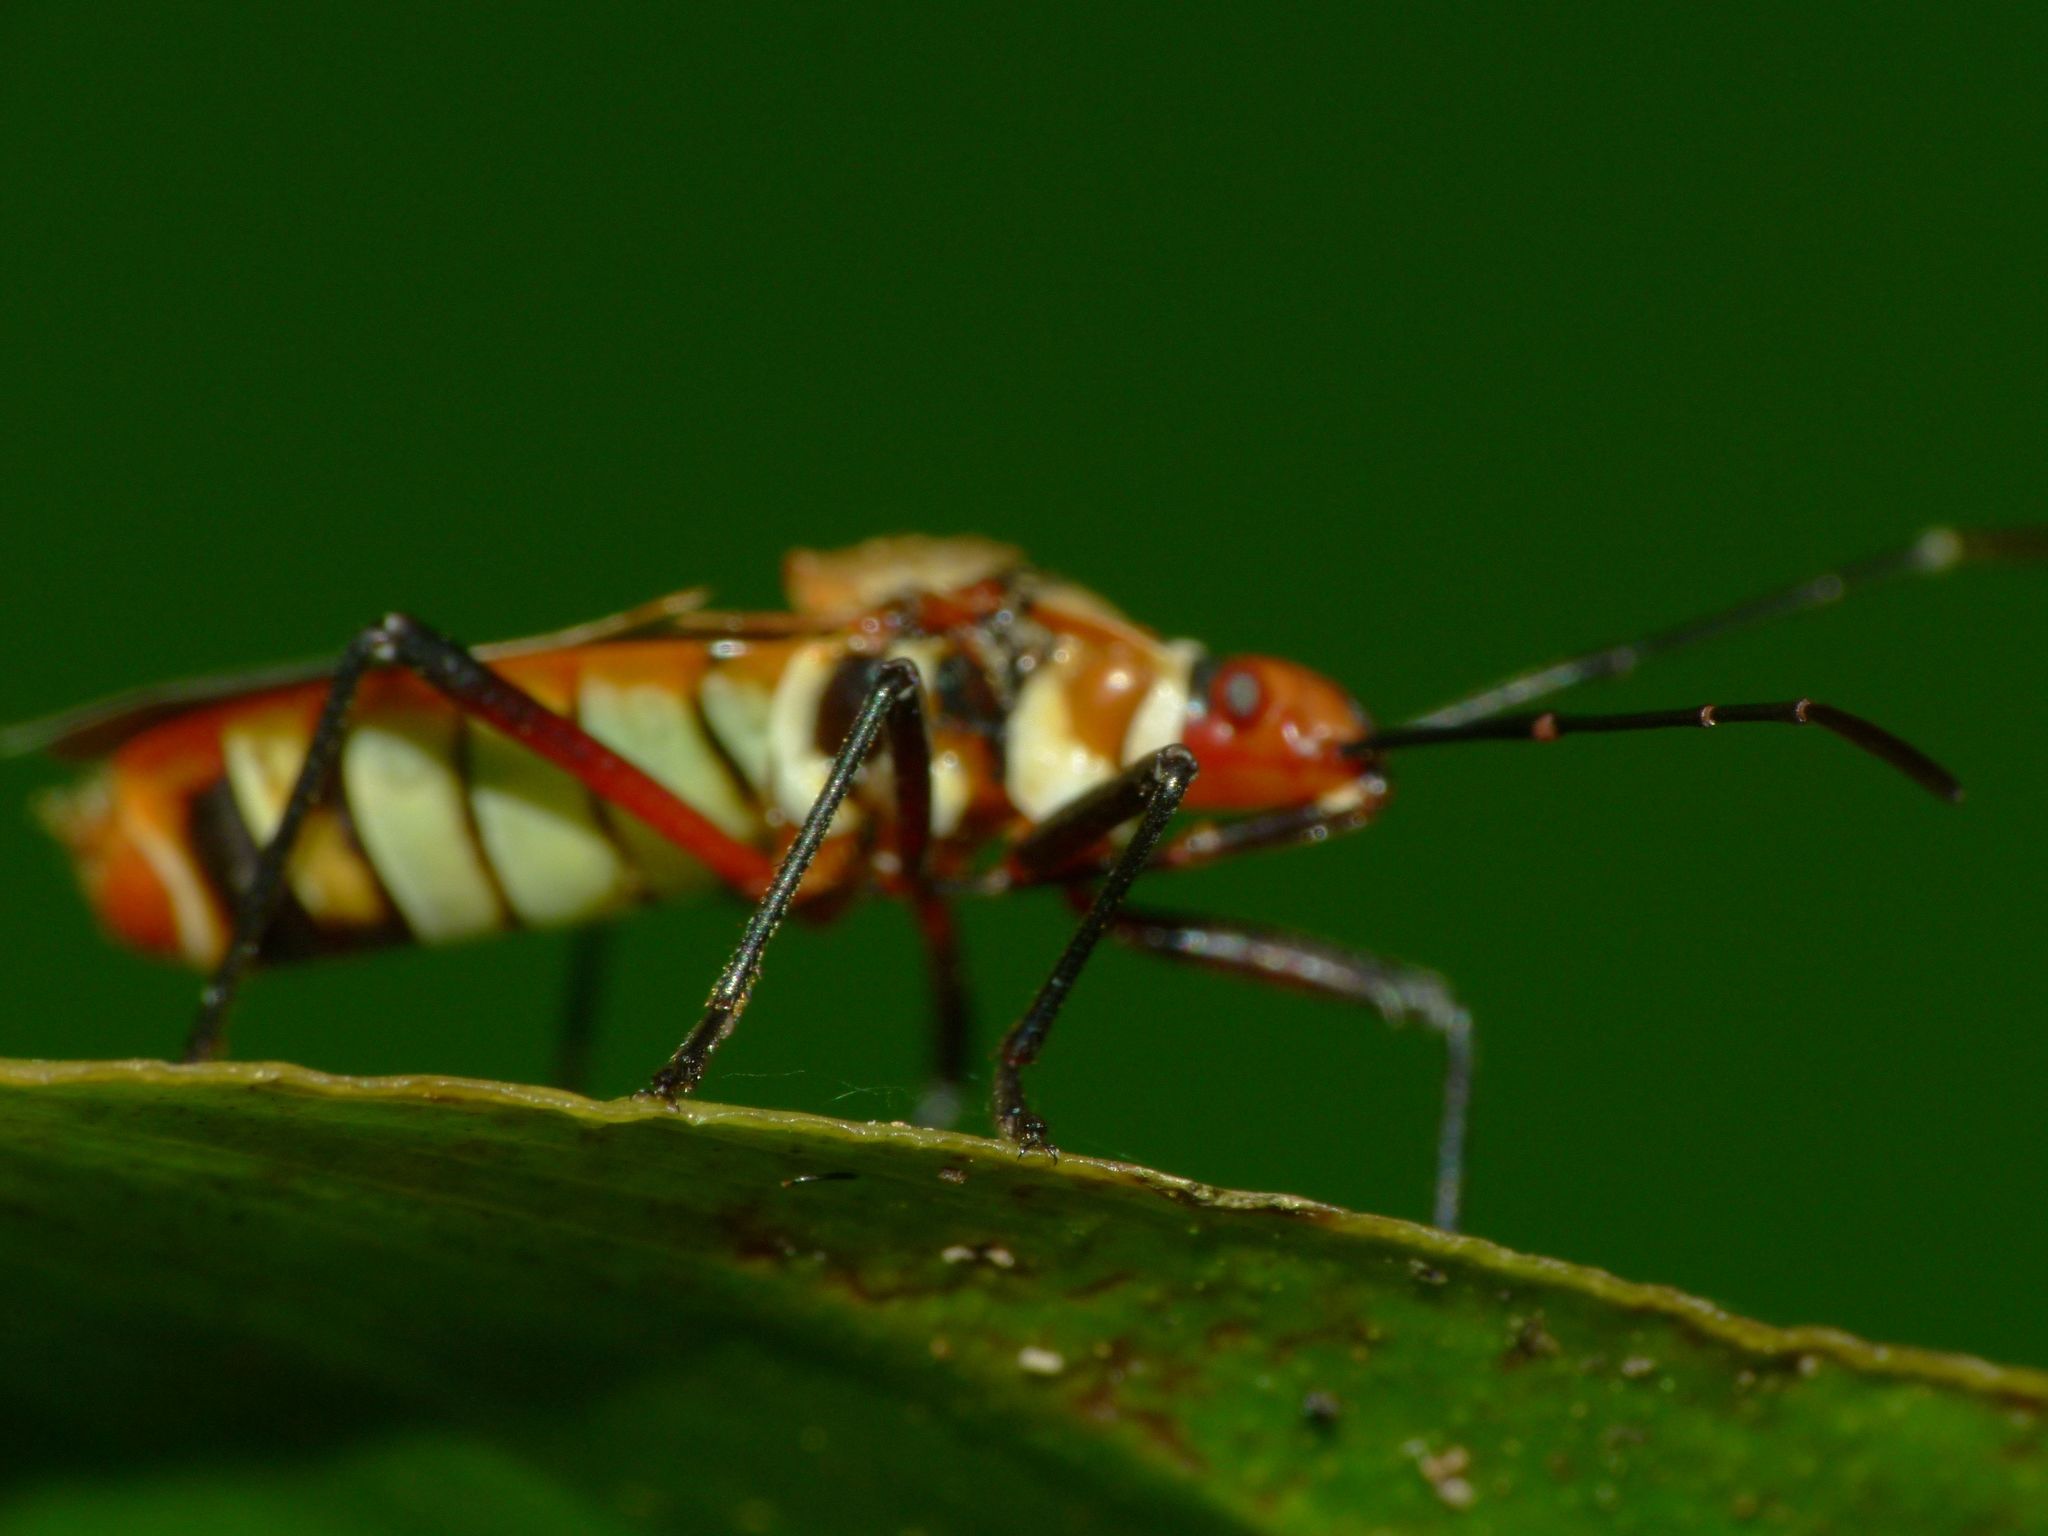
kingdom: Animalia
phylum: Arthropoda
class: Insecta
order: Hemiptera
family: Pyrrhocoridae
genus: Dysdercus
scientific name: Dysdercus sidae
